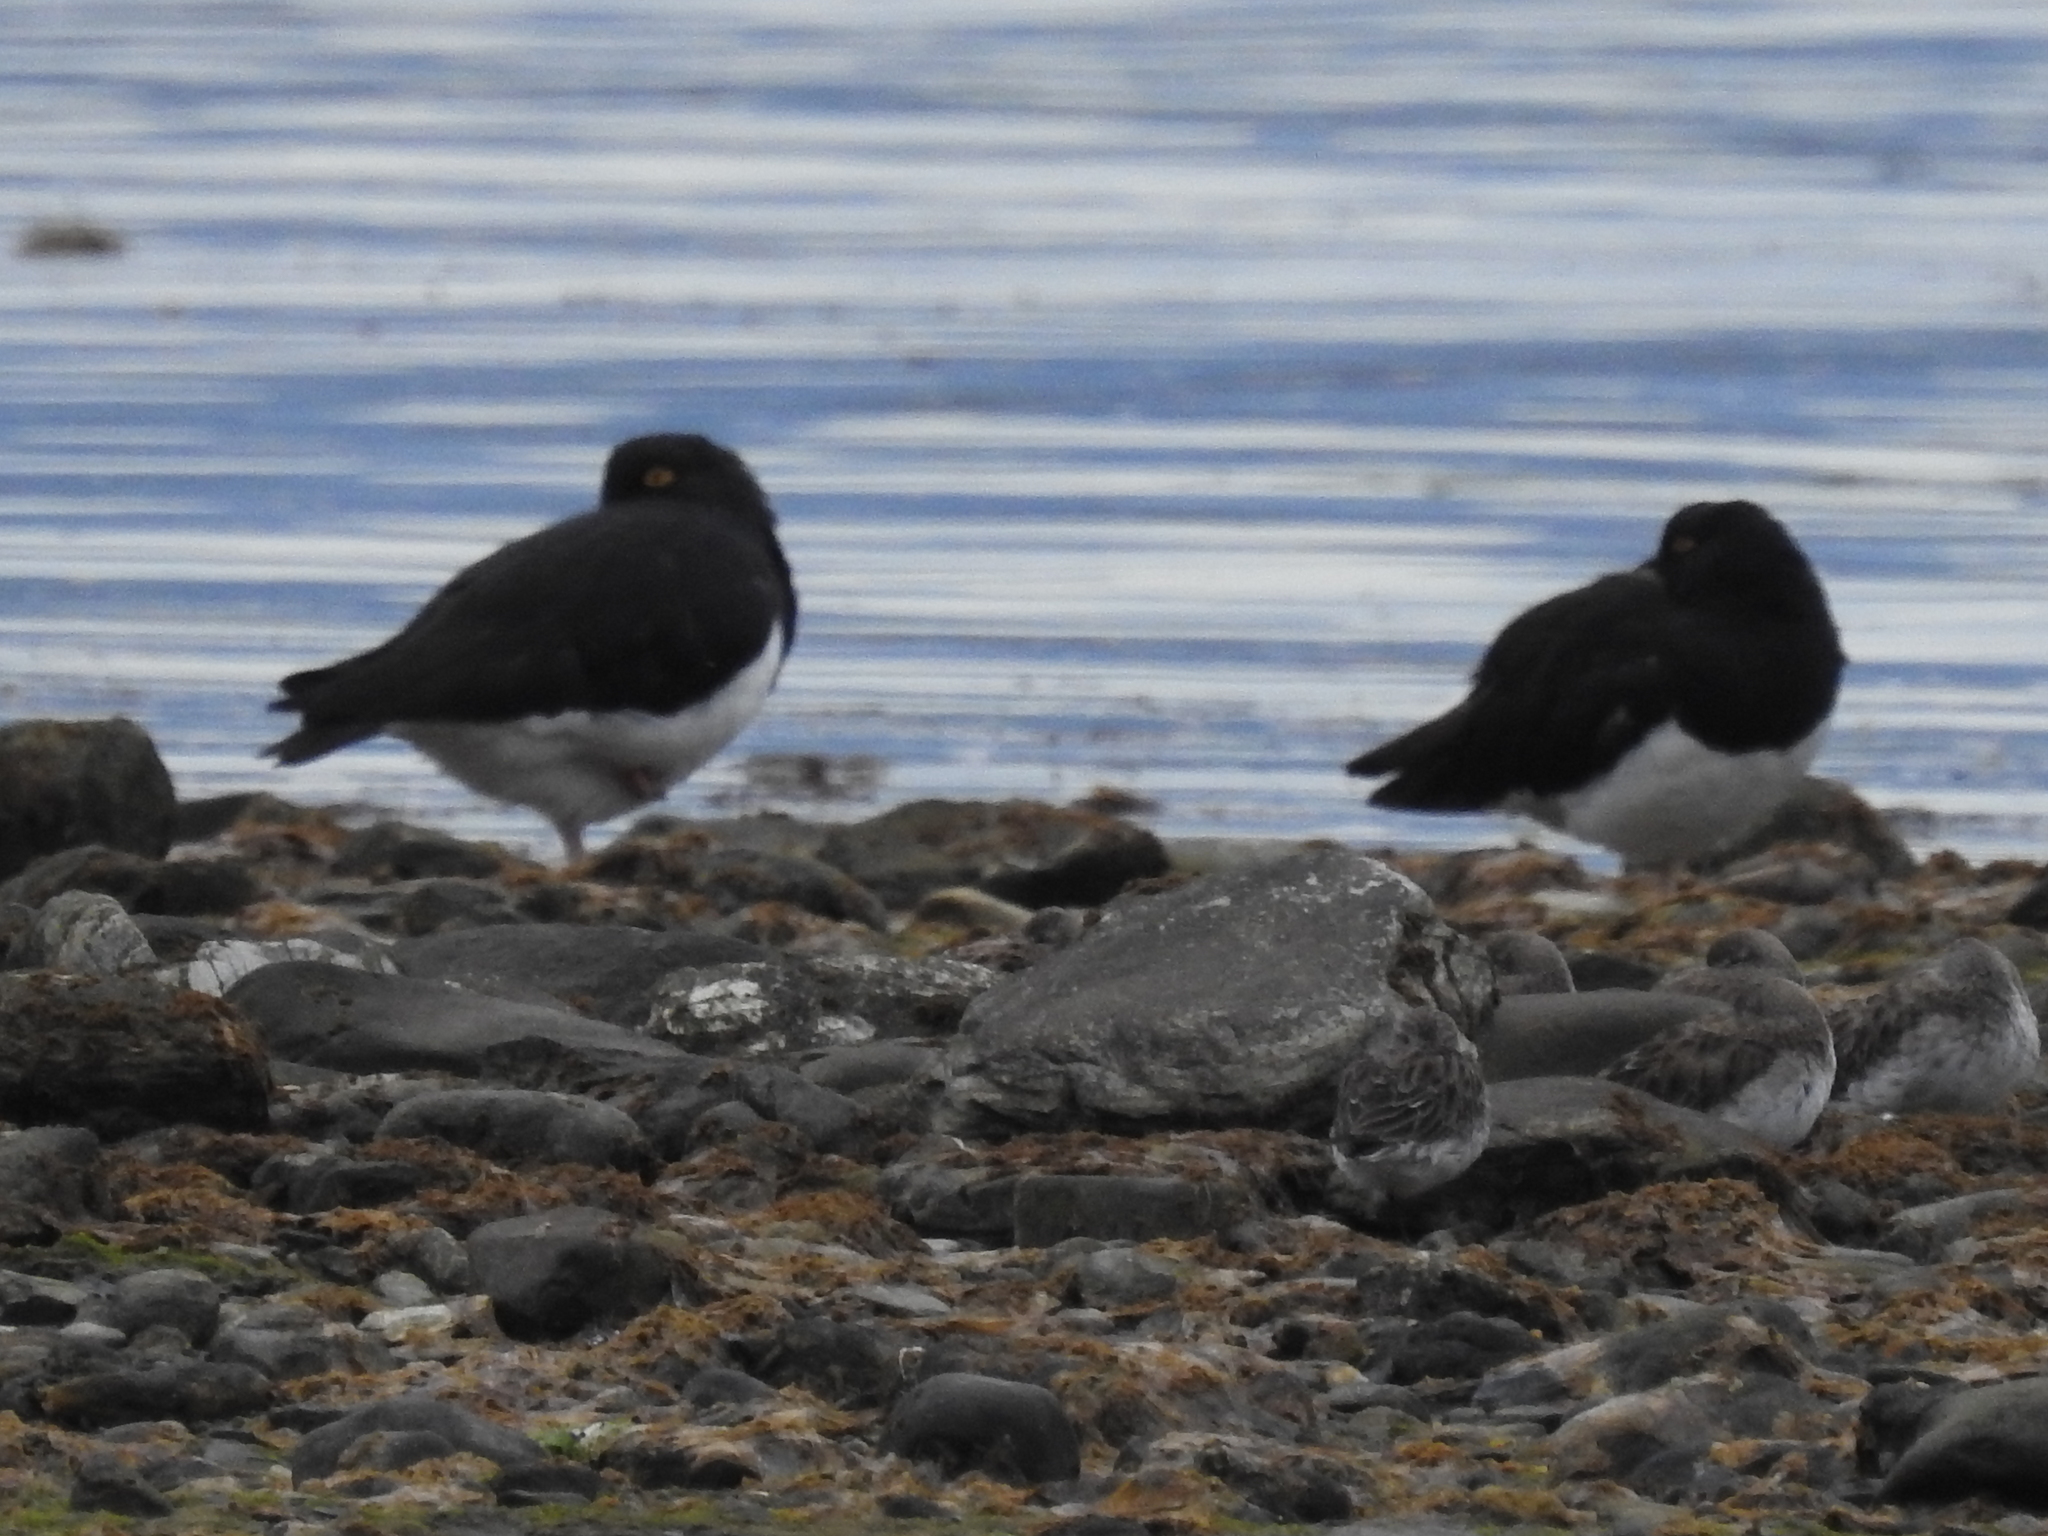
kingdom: Animalia
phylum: Chordata
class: Aves
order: Charadriiformes
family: Haematopodidae
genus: Haematopus
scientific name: Haematopus leucopodus
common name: Magellanic oystercatcher
